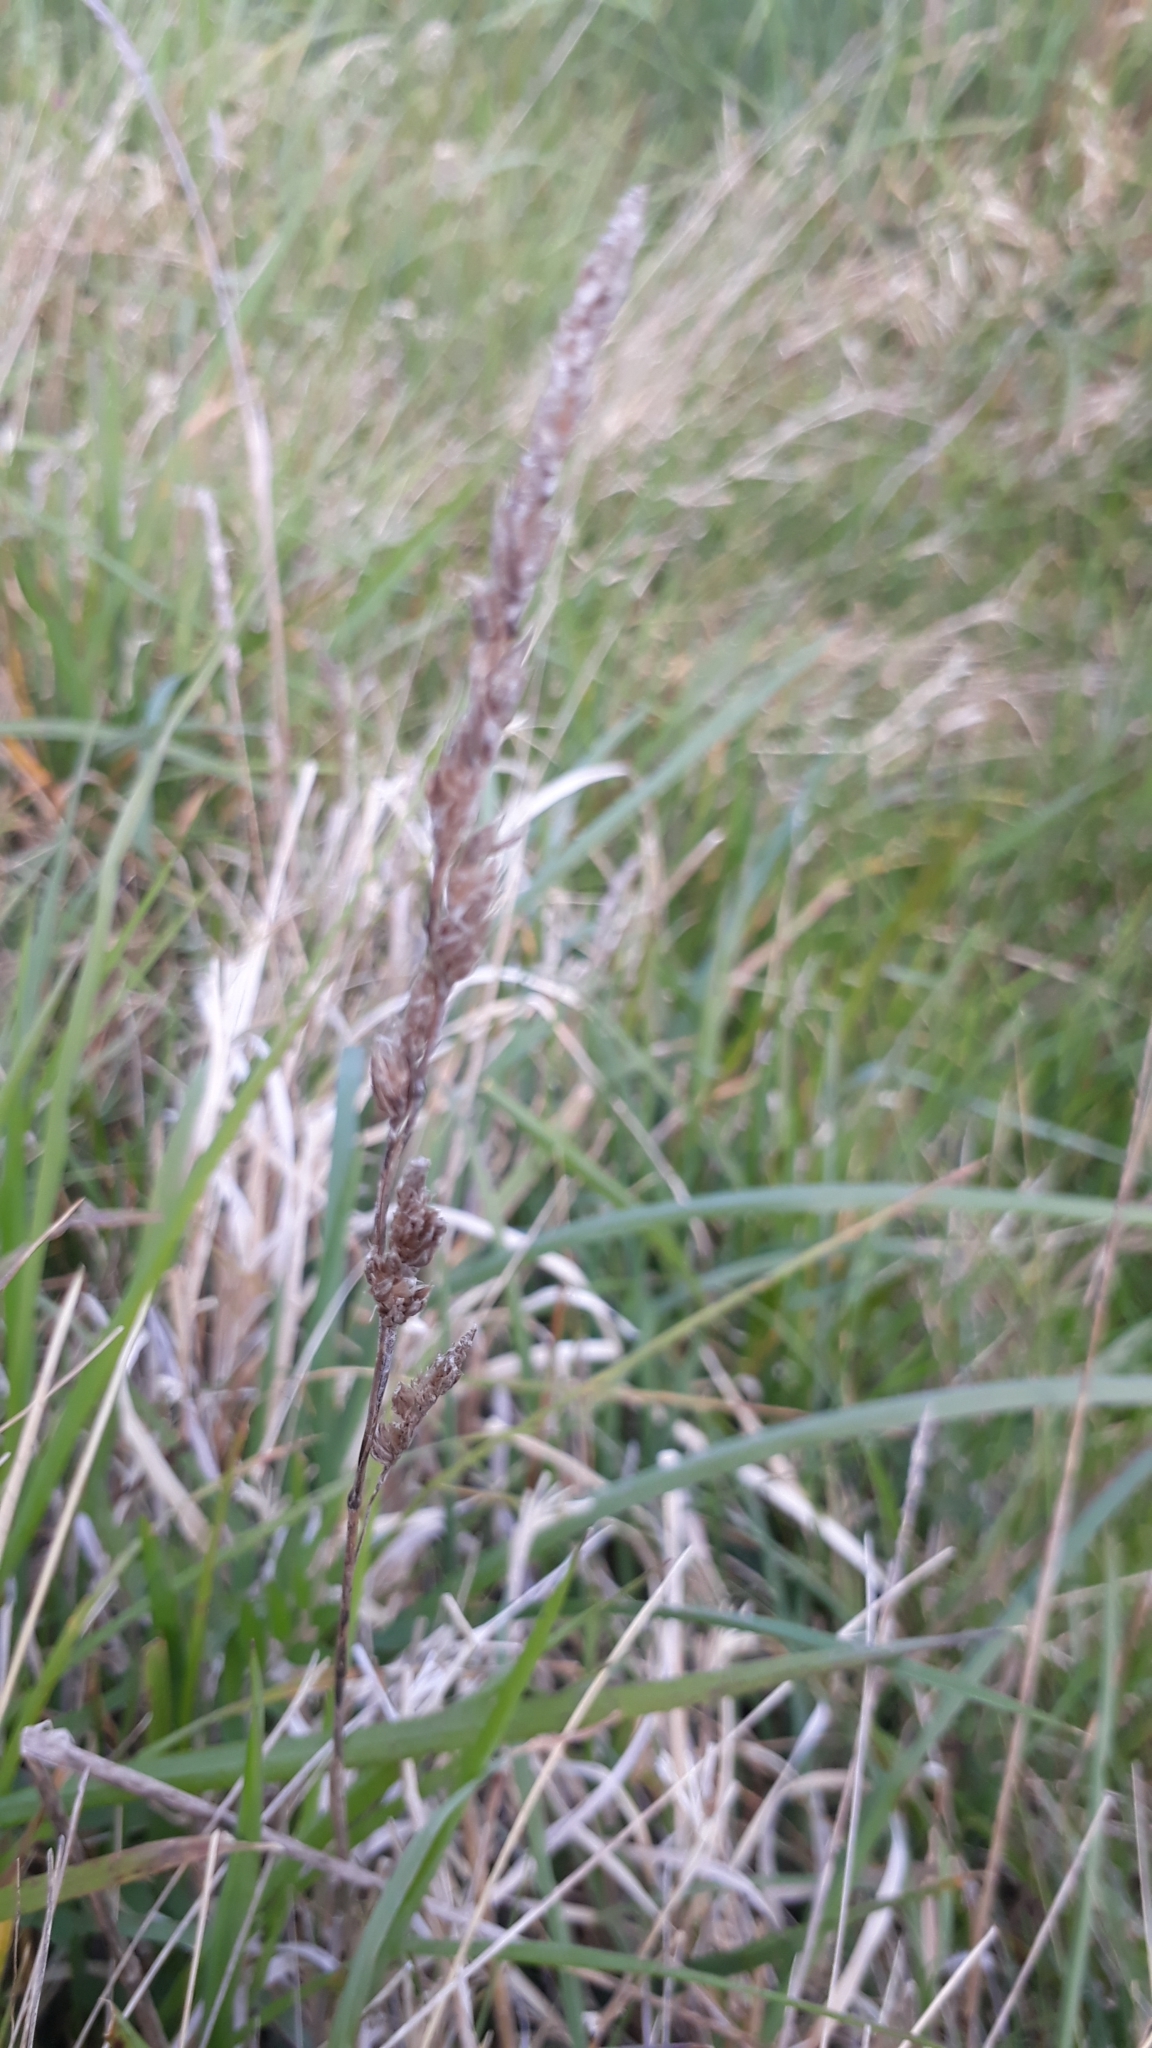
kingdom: Plantae
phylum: Tracheophyta
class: Liliopsida
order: Poales
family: Poaceae
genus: Dactylis
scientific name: Dactylis glomerata
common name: Orchardgrass
